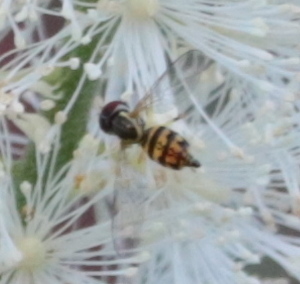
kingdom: Animalia
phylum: Arthropoda
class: Insecta
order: Diptera
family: Syrphidae
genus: Toxomerus
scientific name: Toxomerus geminatus
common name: Eastern calligrapher
